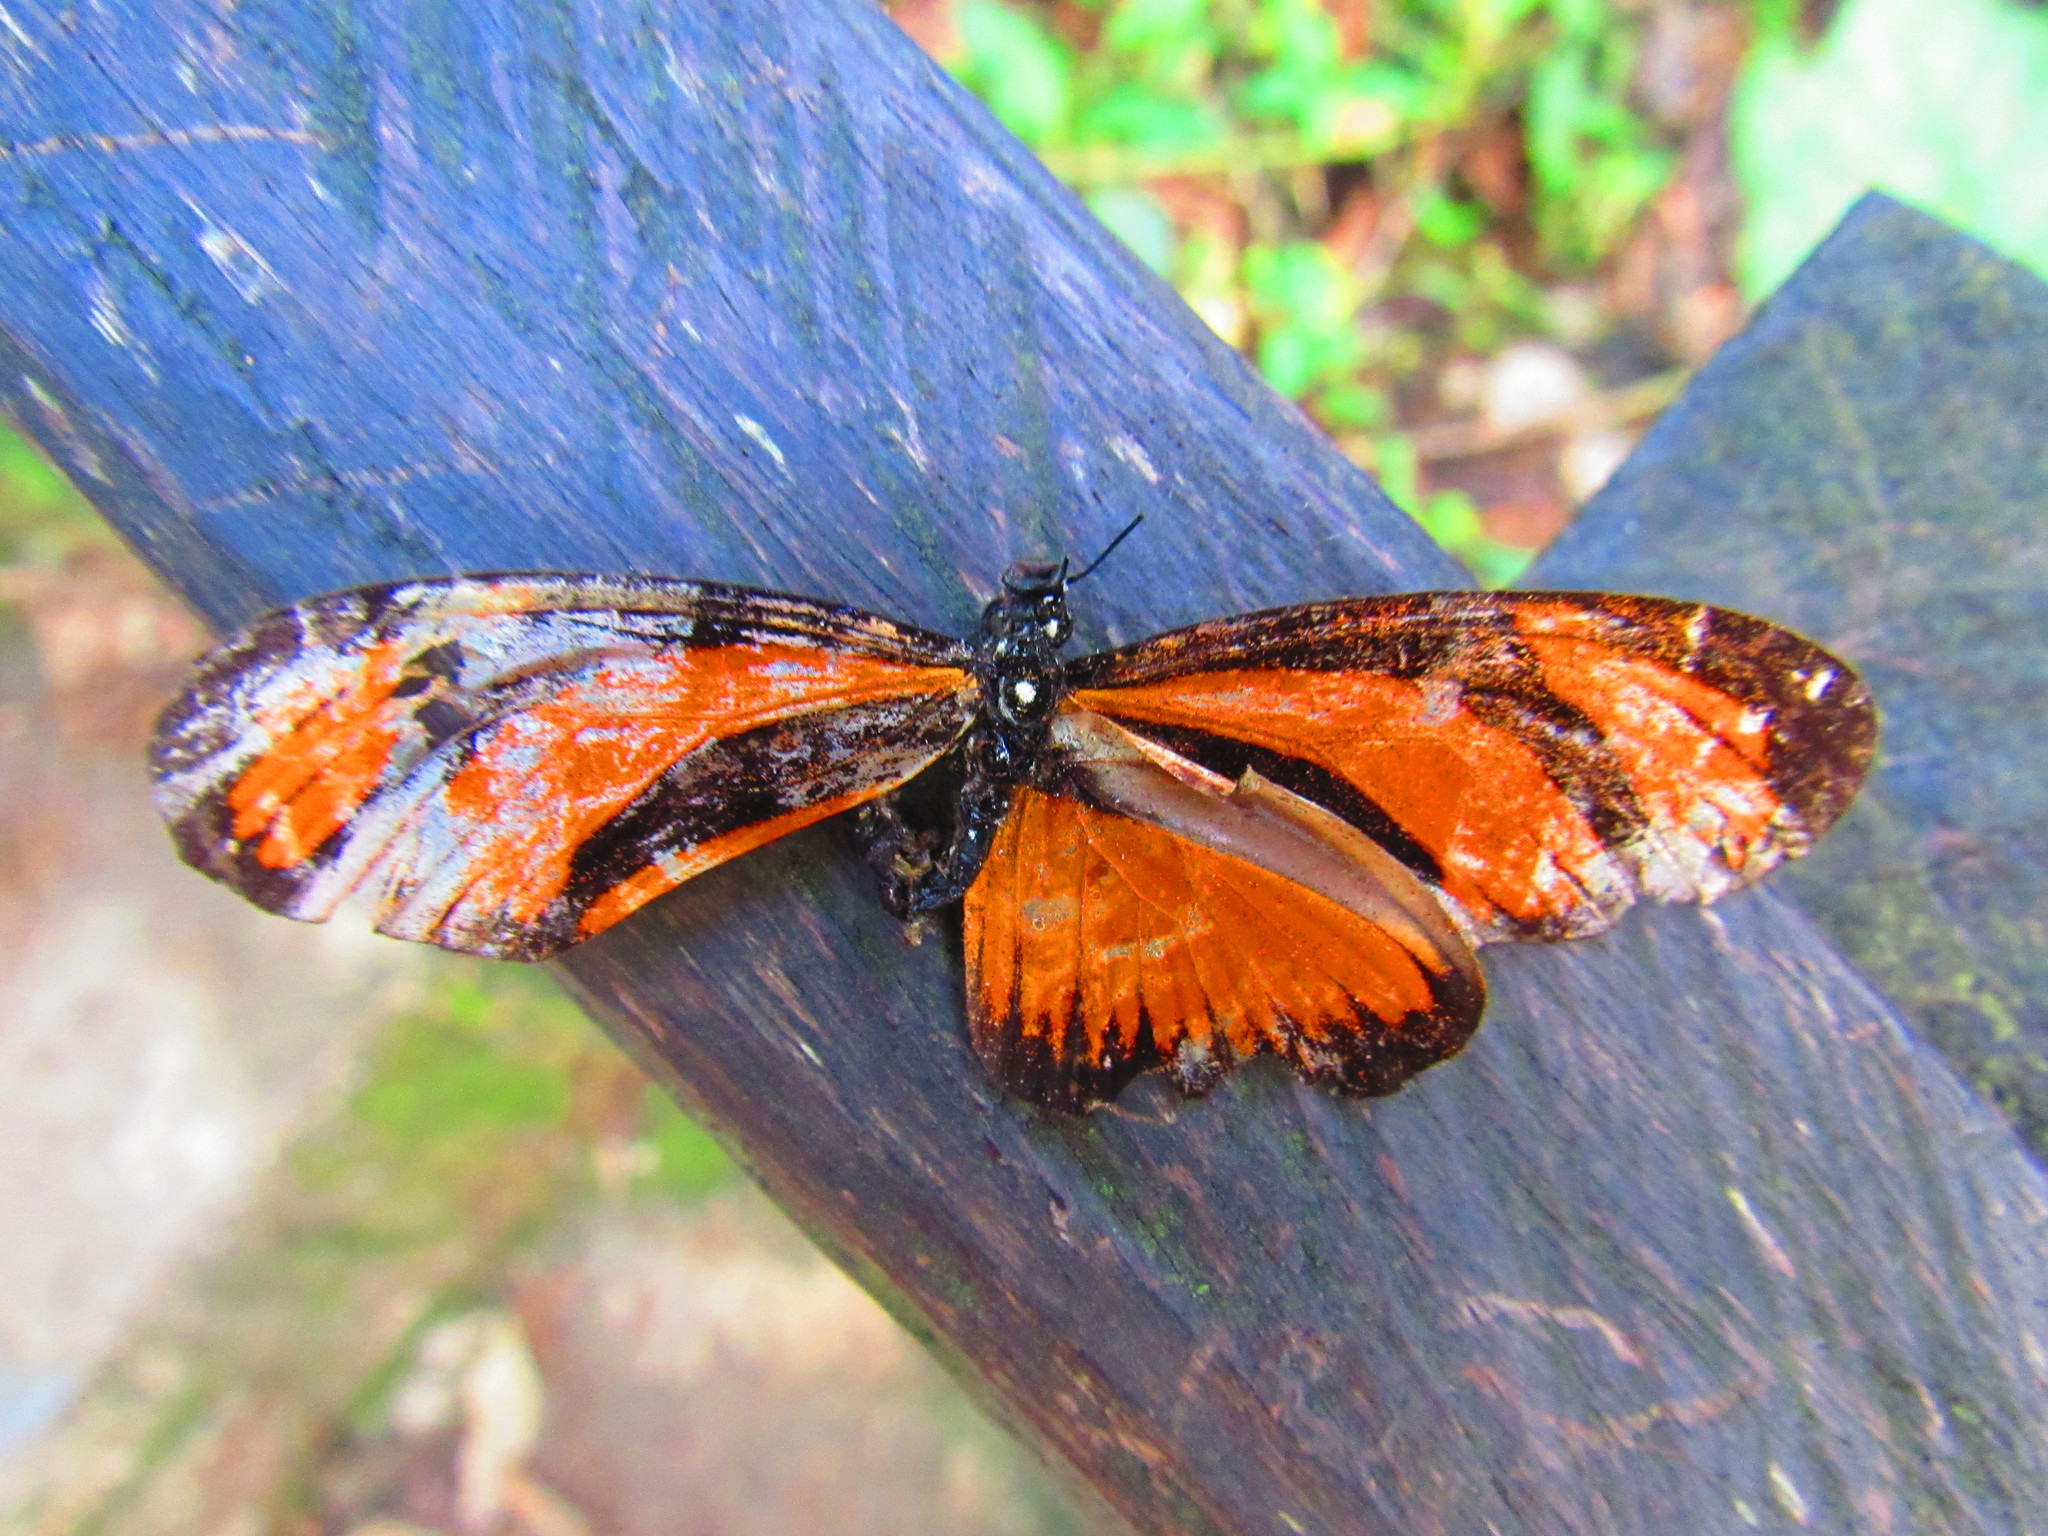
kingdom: Animalia
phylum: Arthropoda
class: Insecta
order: Lepidoptera
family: Nymphalidae
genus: Eueides
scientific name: Eueides lineata
